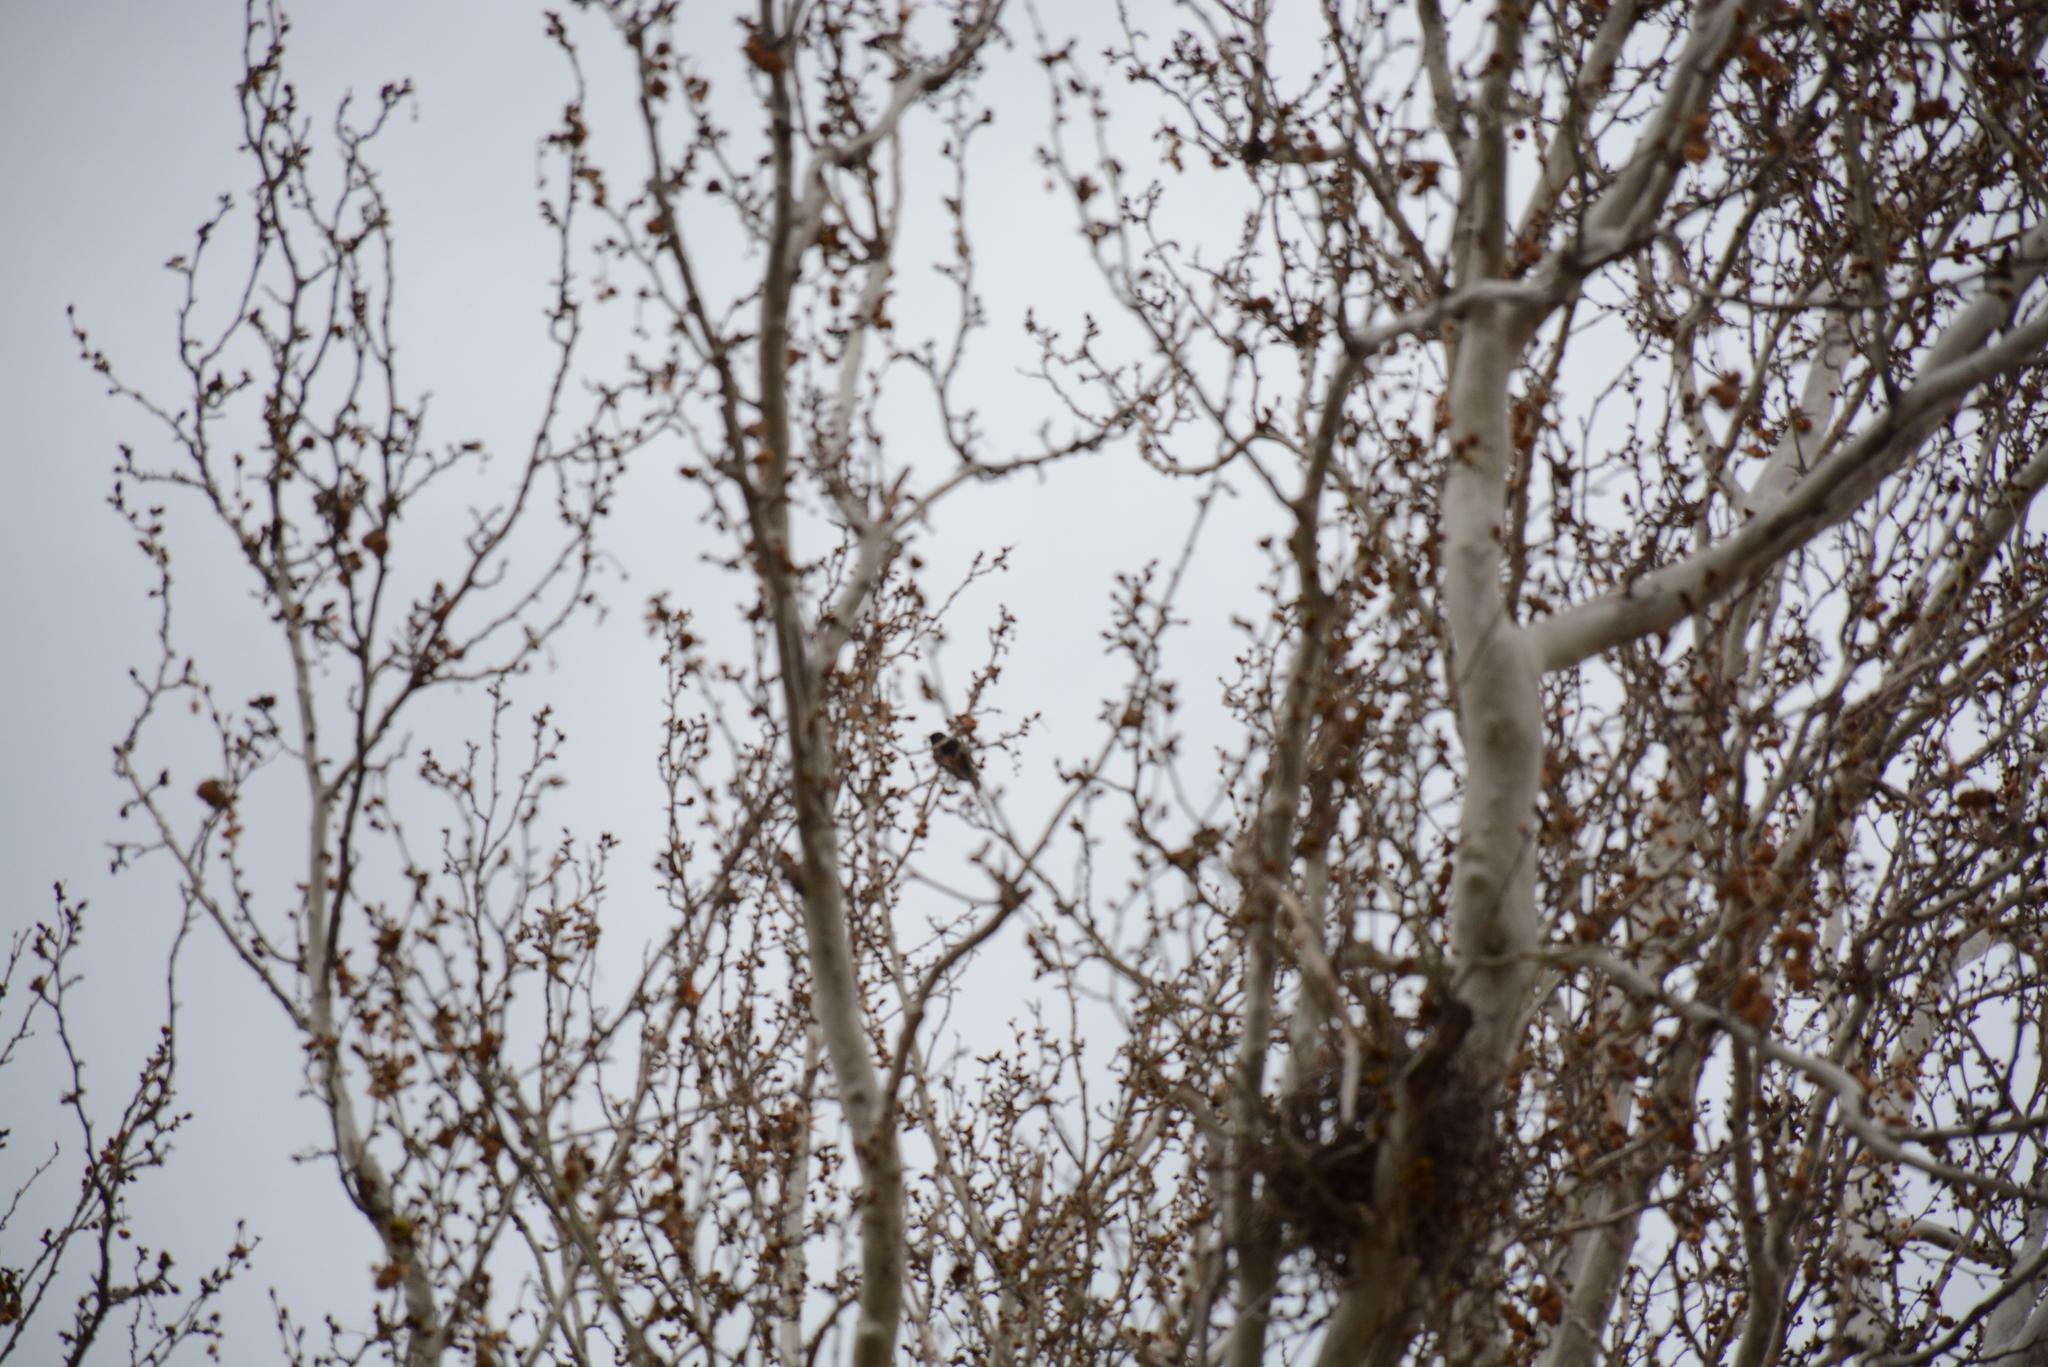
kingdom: Animalia
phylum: Chordata
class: Aves
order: Passeriformes
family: Turdidae
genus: Turdus
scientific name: Turdus merula
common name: Common blackbird
